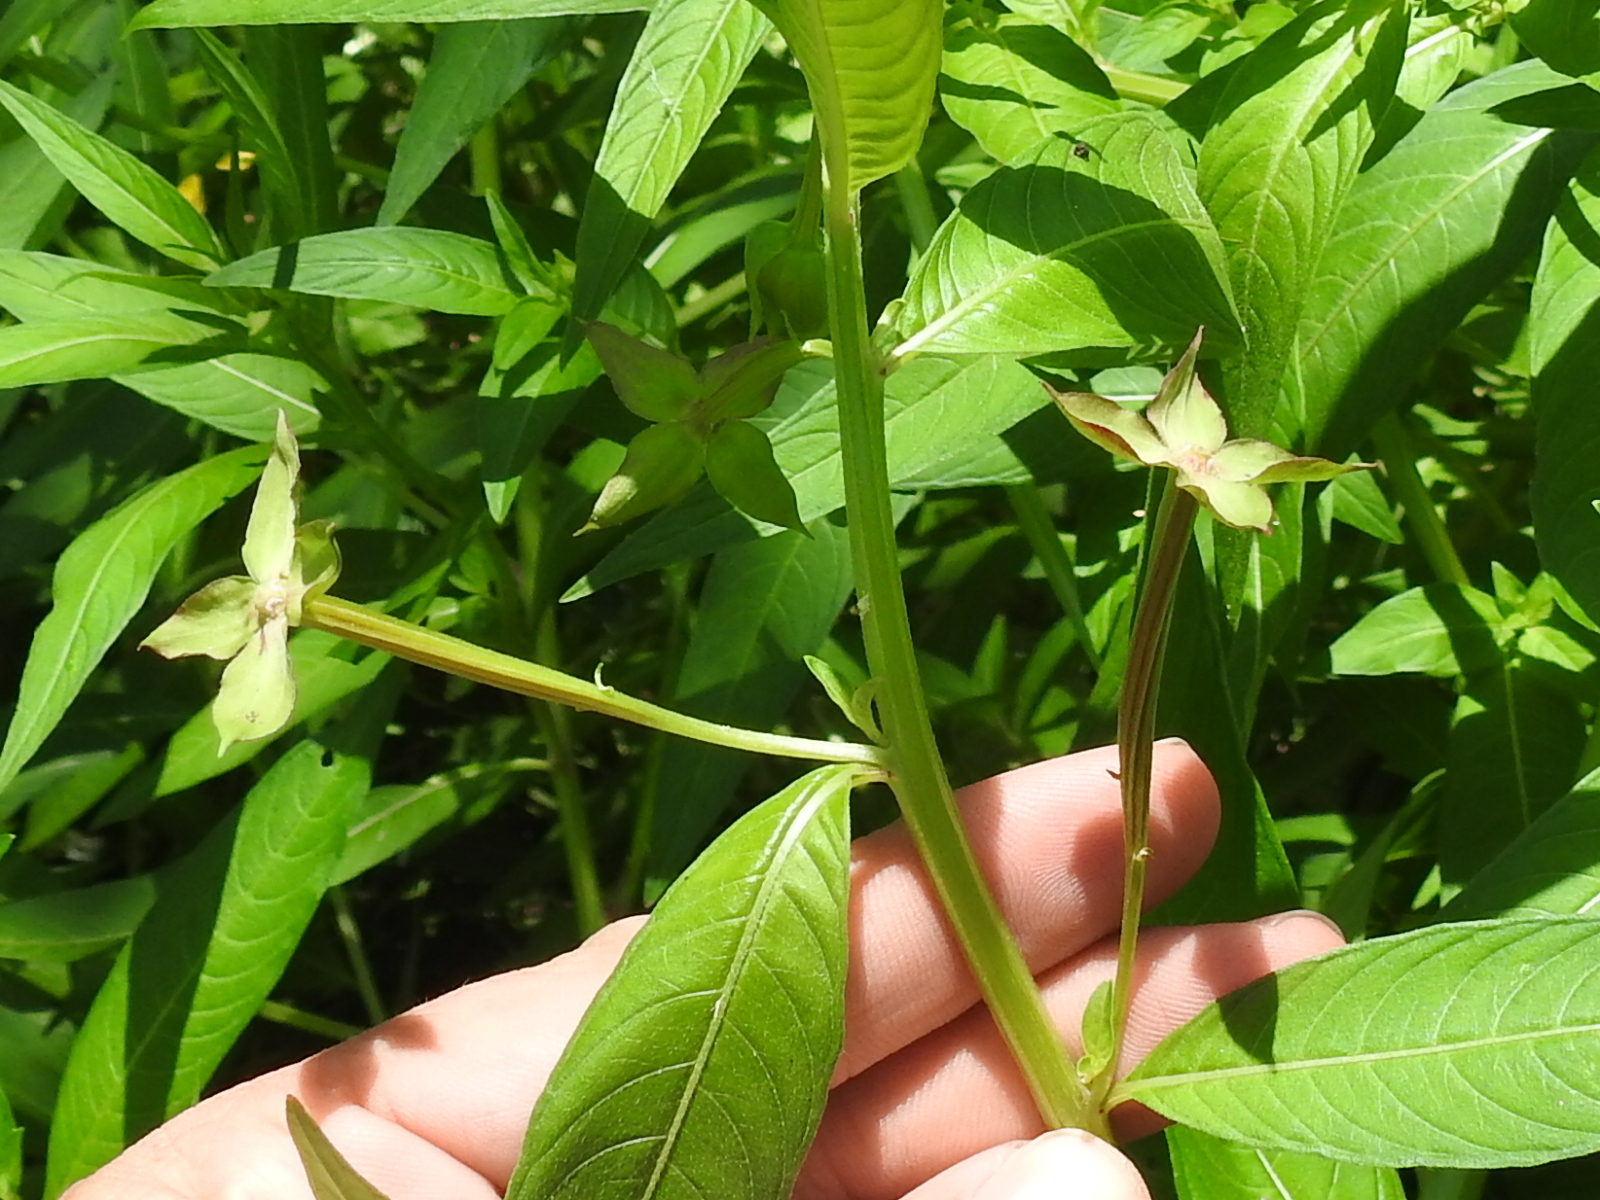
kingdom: Plantae
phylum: Tracheophyta
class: Magnoliopsida
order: Myrtales
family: Onagraceae
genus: Ludwigia
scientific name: Ludwigia octovalvis
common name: Water-primrose
